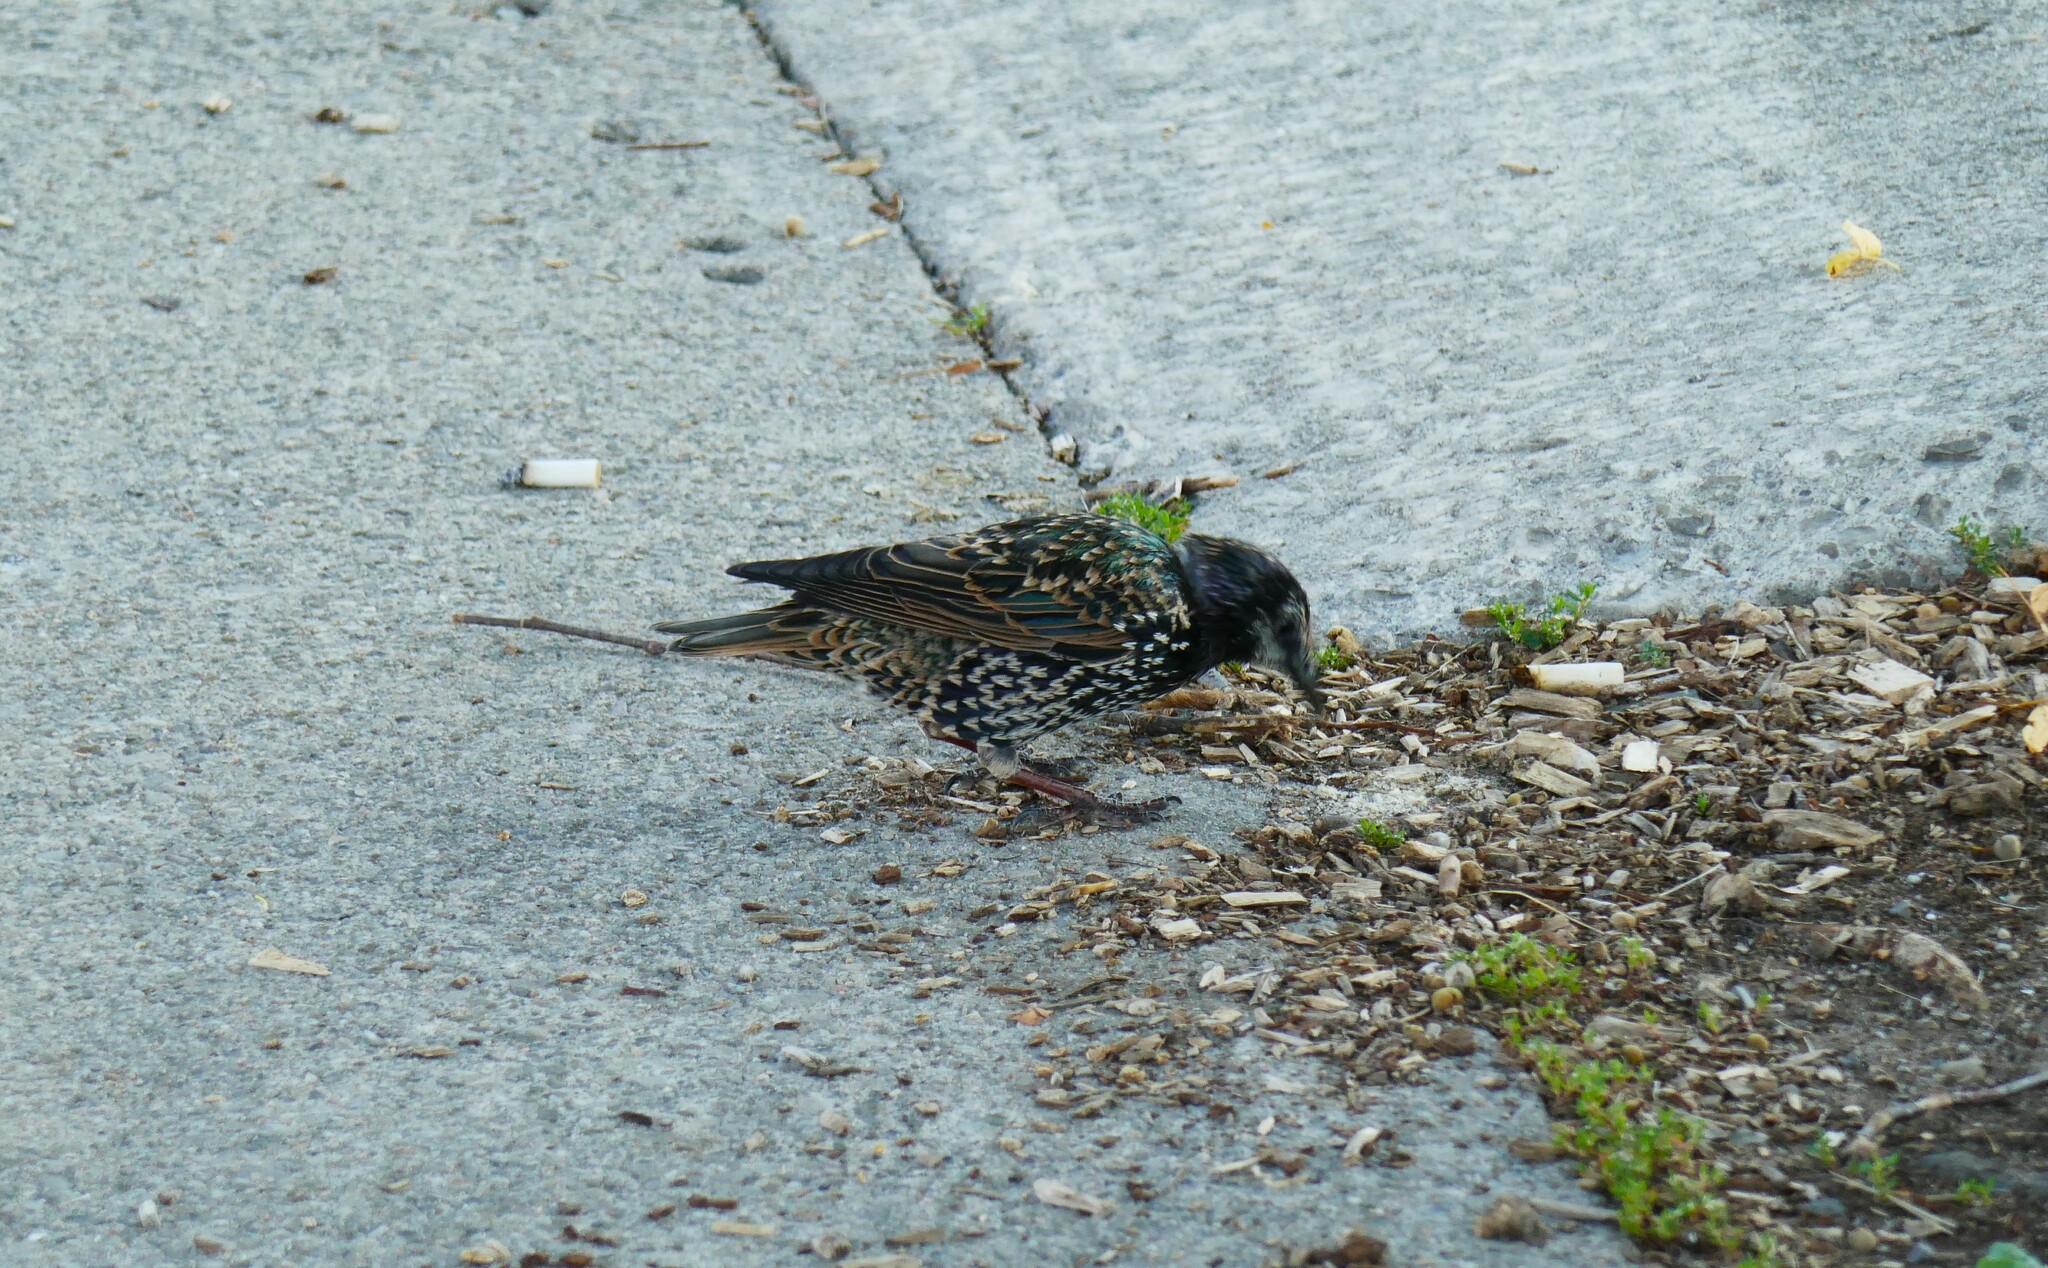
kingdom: Animalia
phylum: Chordata
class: Aves
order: Passeriformes
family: Sturnidae
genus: Sturnus
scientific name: Sturnus vulgaris
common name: Common starling
